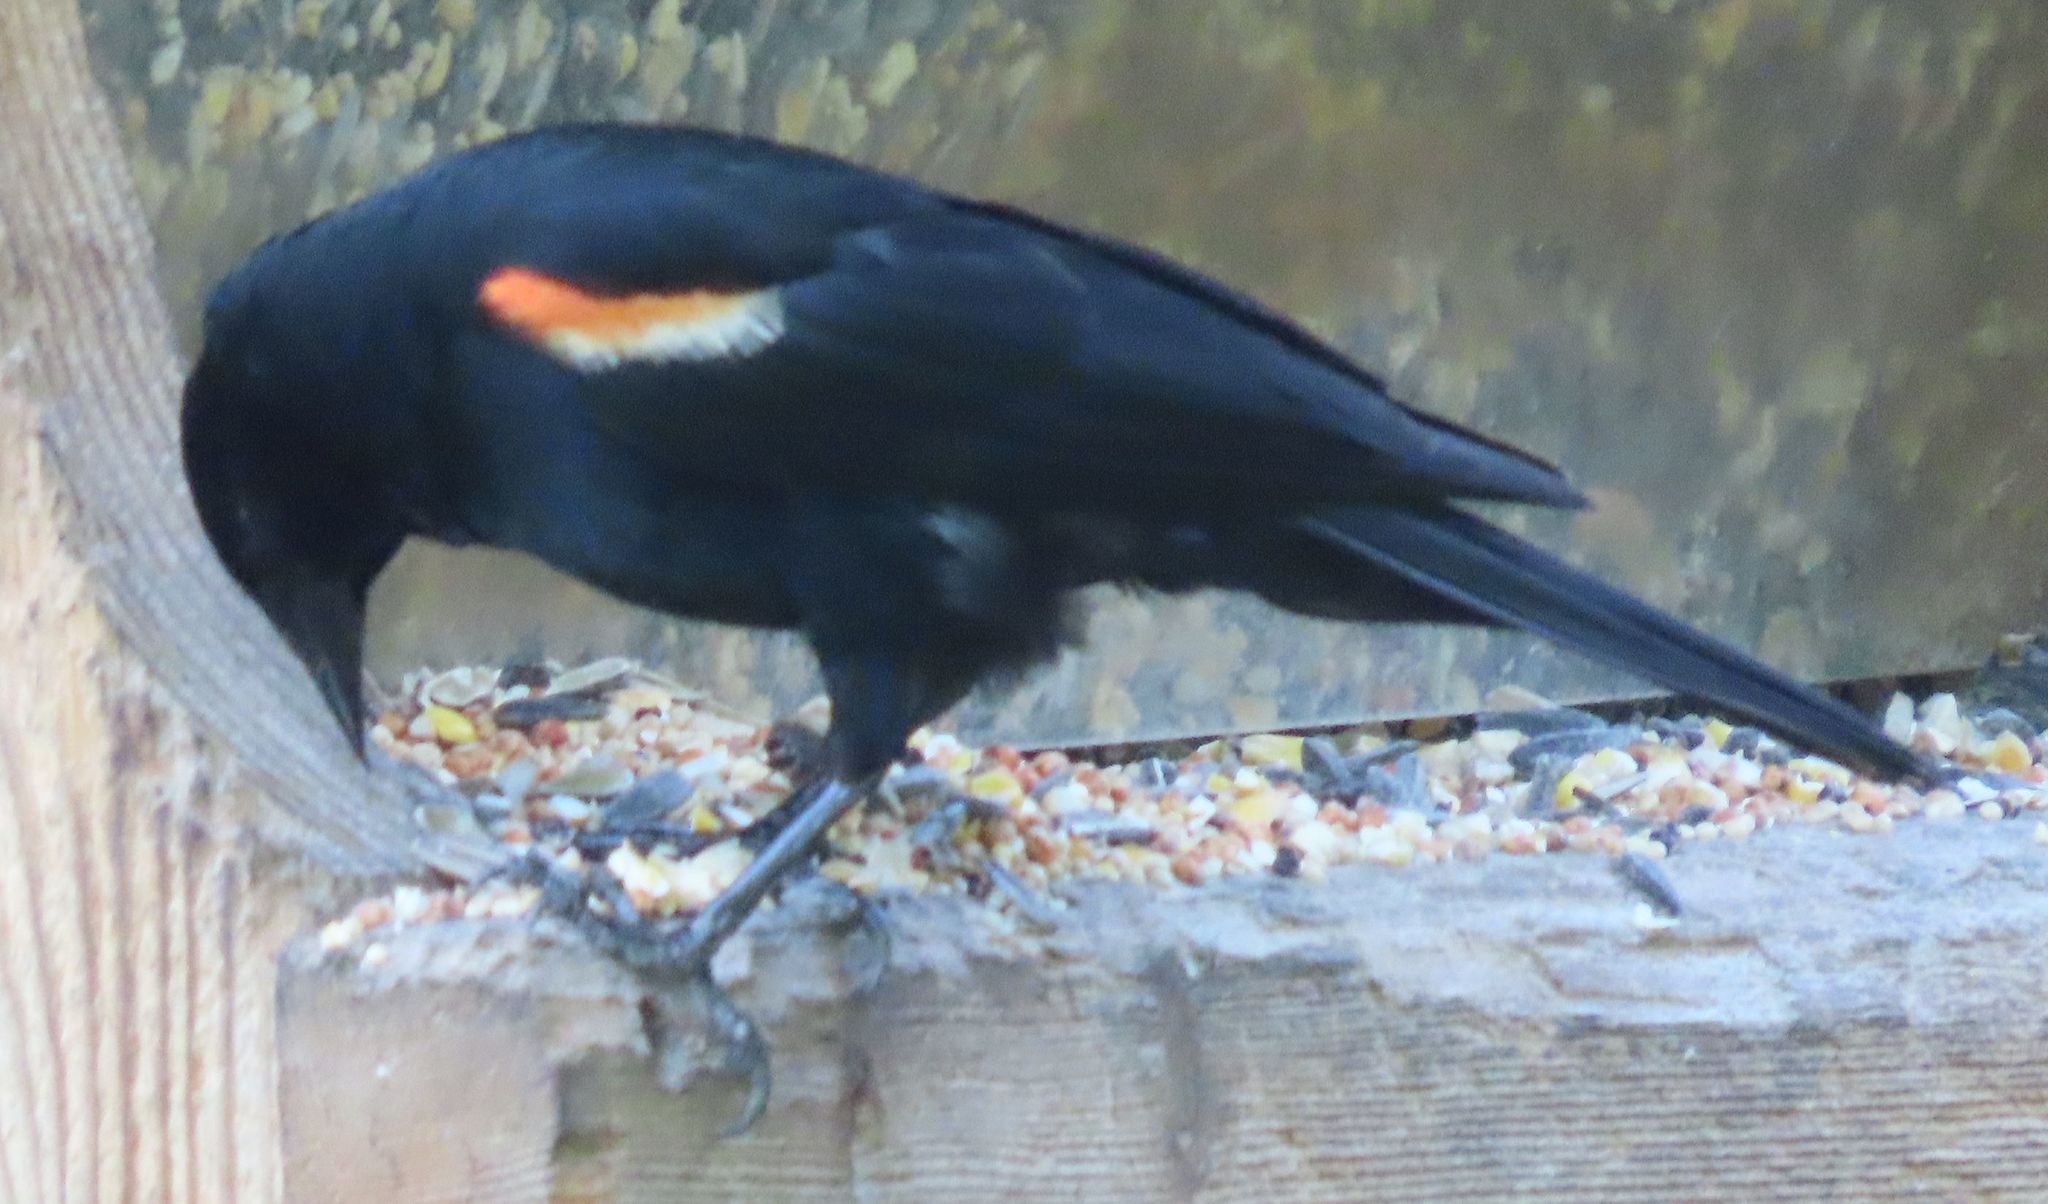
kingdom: Animalia
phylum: Chordata
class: Aves
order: Passeriformes
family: Icteridae
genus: Agelaius
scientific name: Agelaius phoeniceus
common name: Red-winged blackbird
